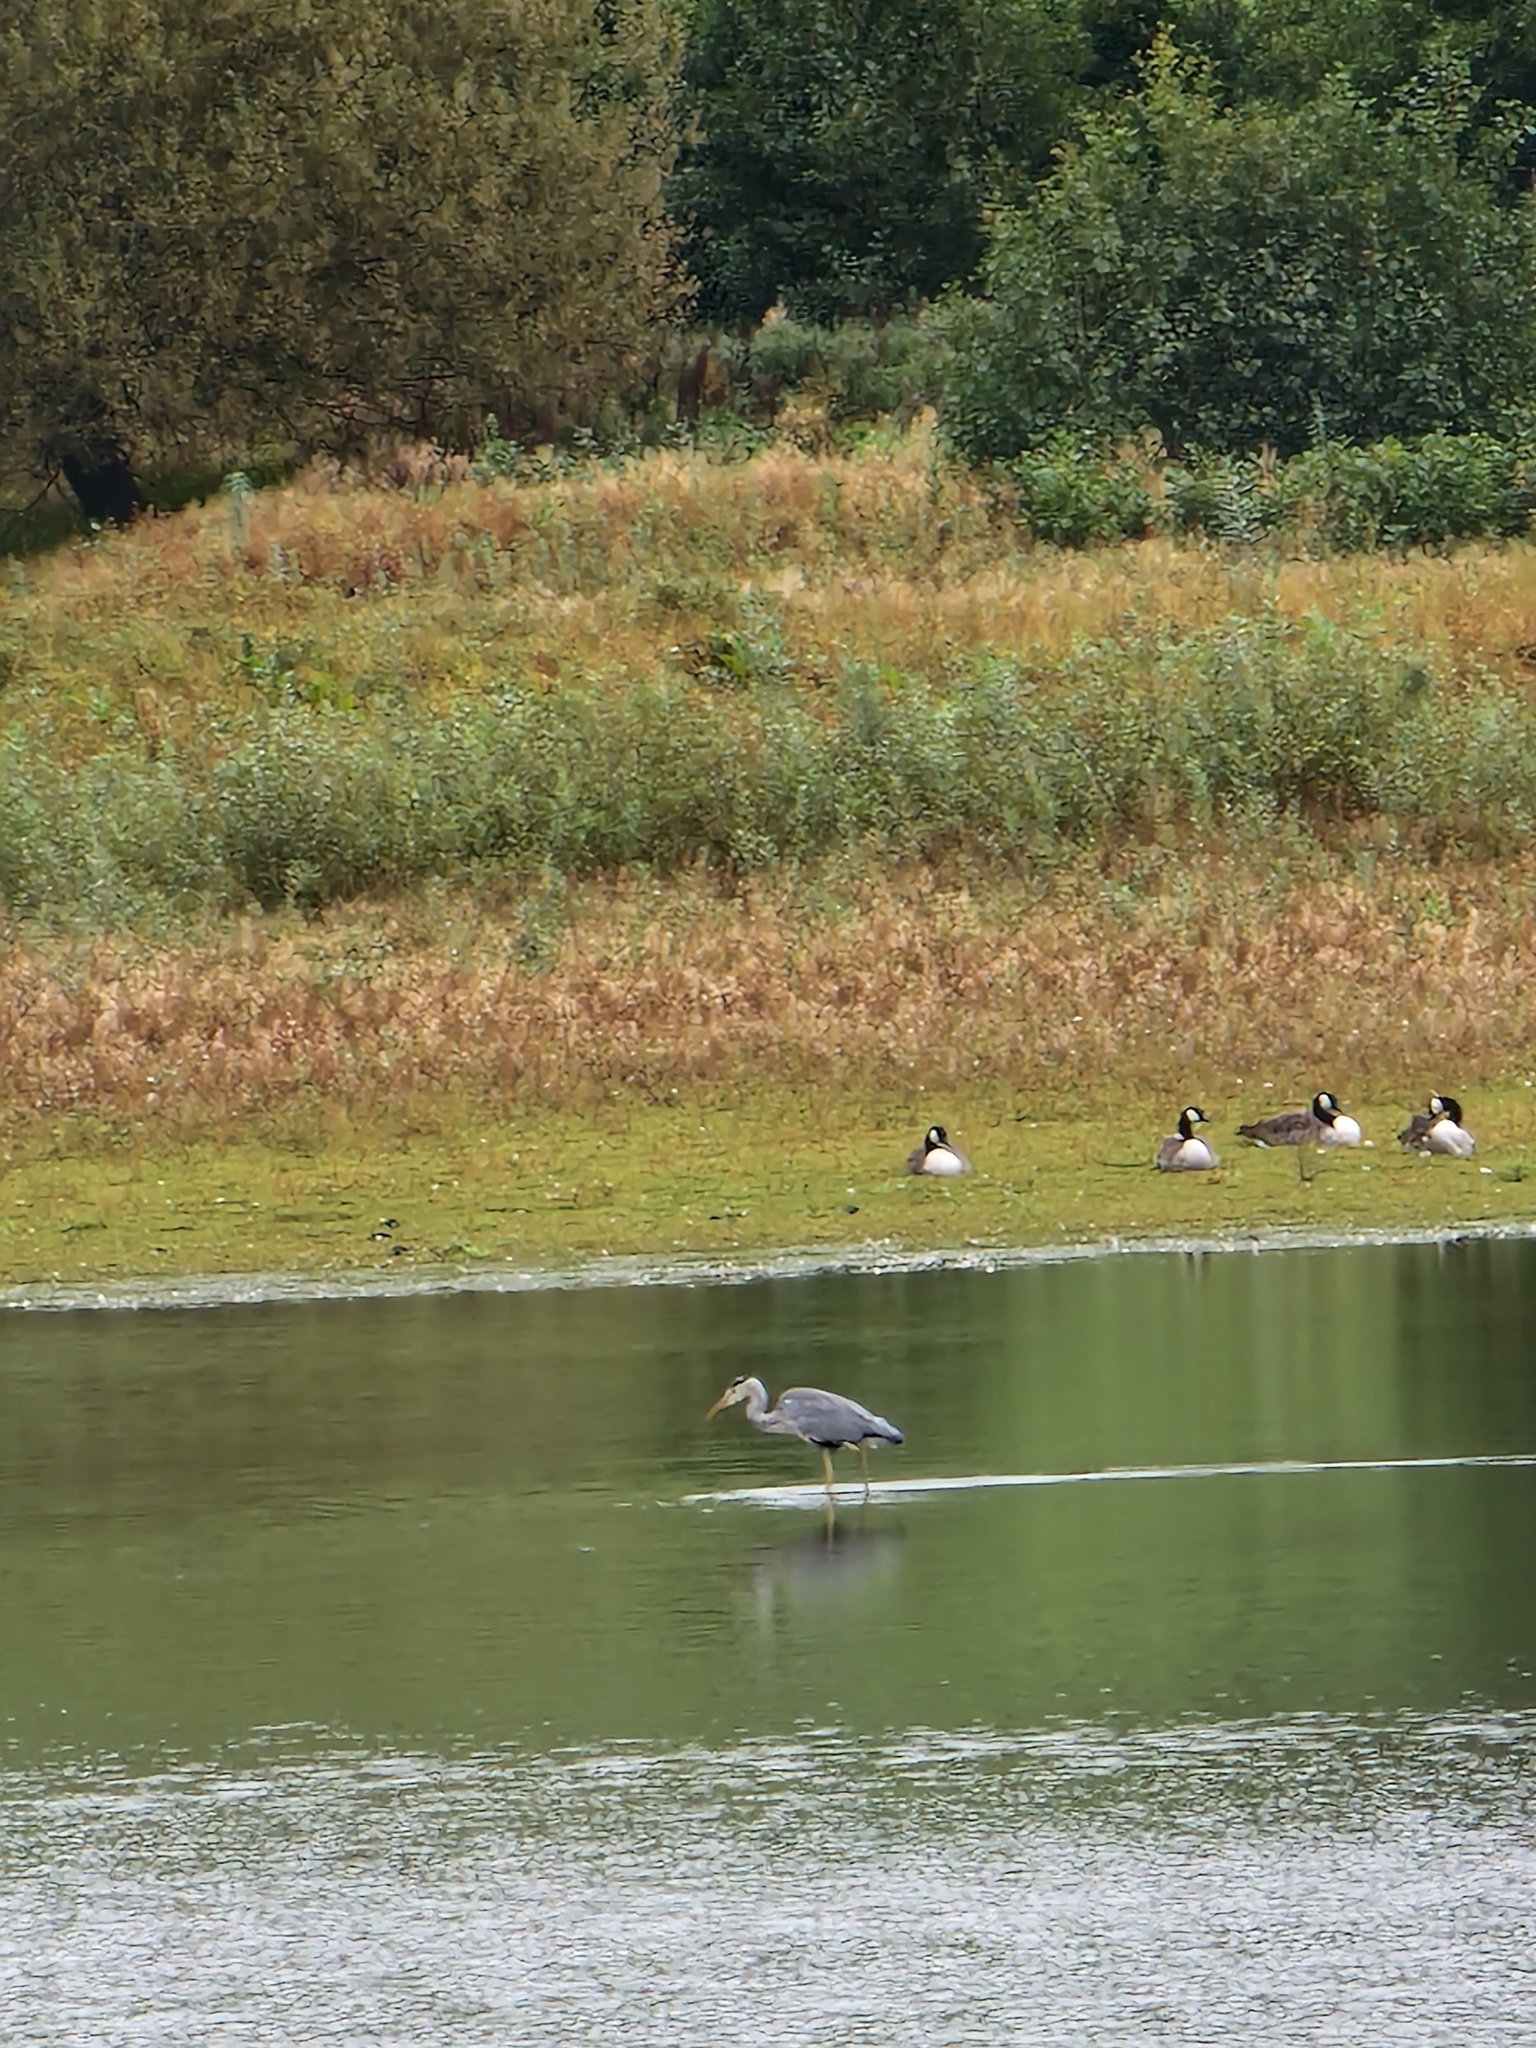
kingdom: Animalia
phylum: Chordata
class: Aves
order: Pelecaniformes
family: Ardeidae
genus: Ardea
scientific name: Ardea cinerea
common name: Grey heron
